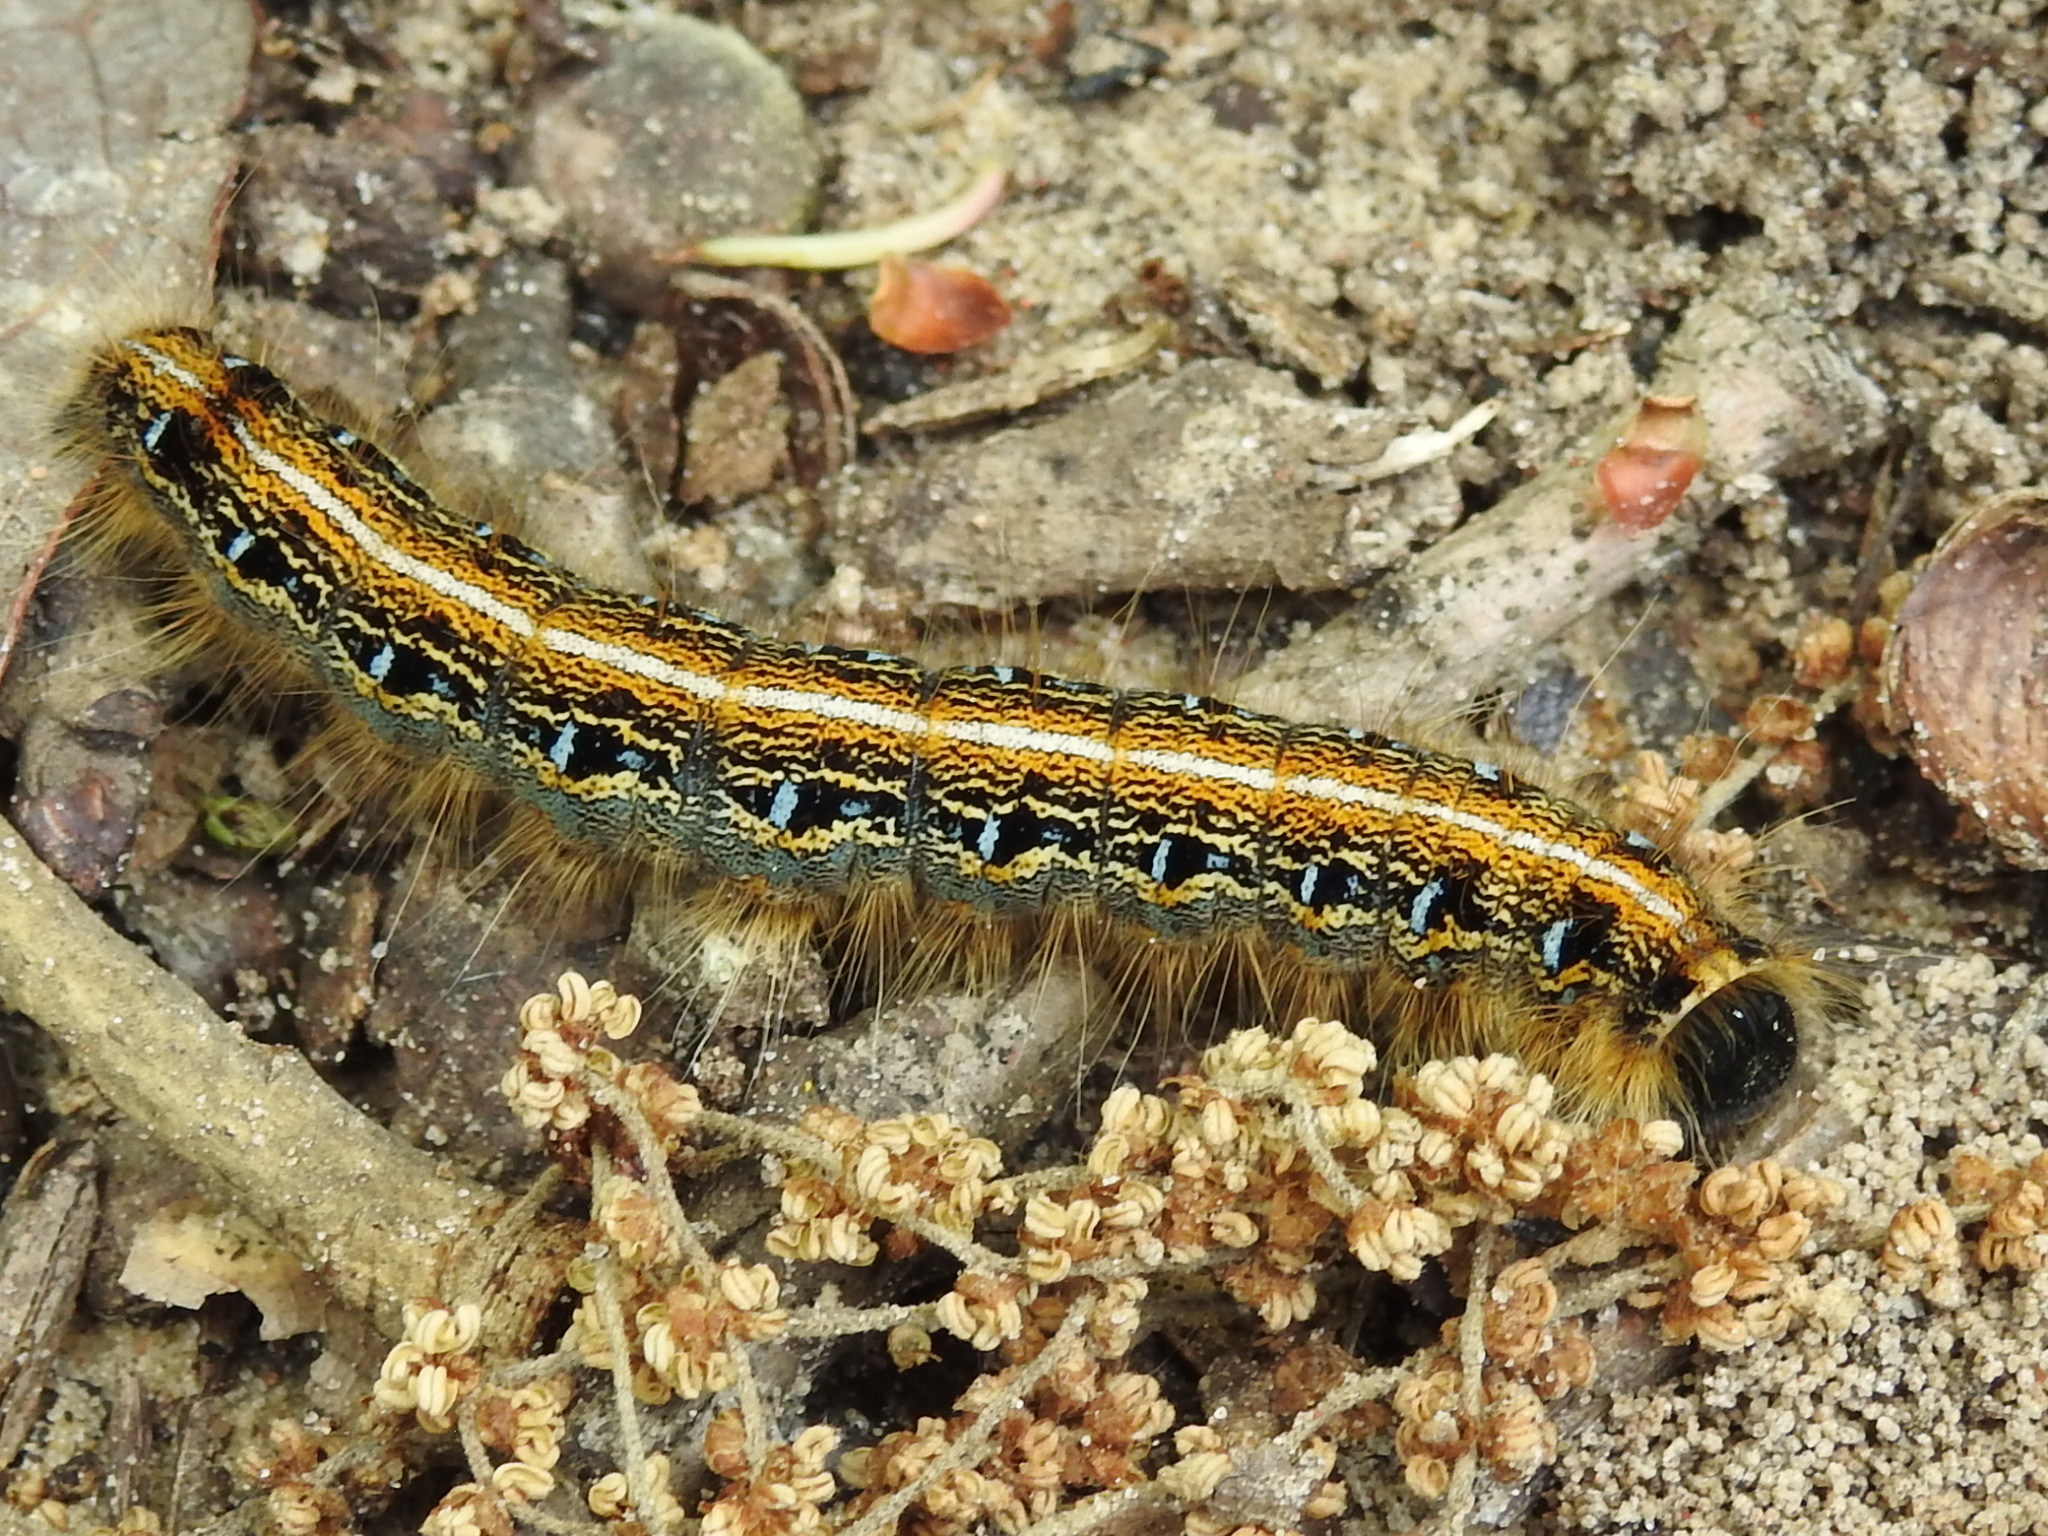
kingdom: Animalia
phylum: Arthropoda
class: Insecta
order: Lepidoptera
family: Lasiocampidae
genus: Malacosoma
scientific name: Malacosoma americana
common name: Eastern tent caterpillar moth
